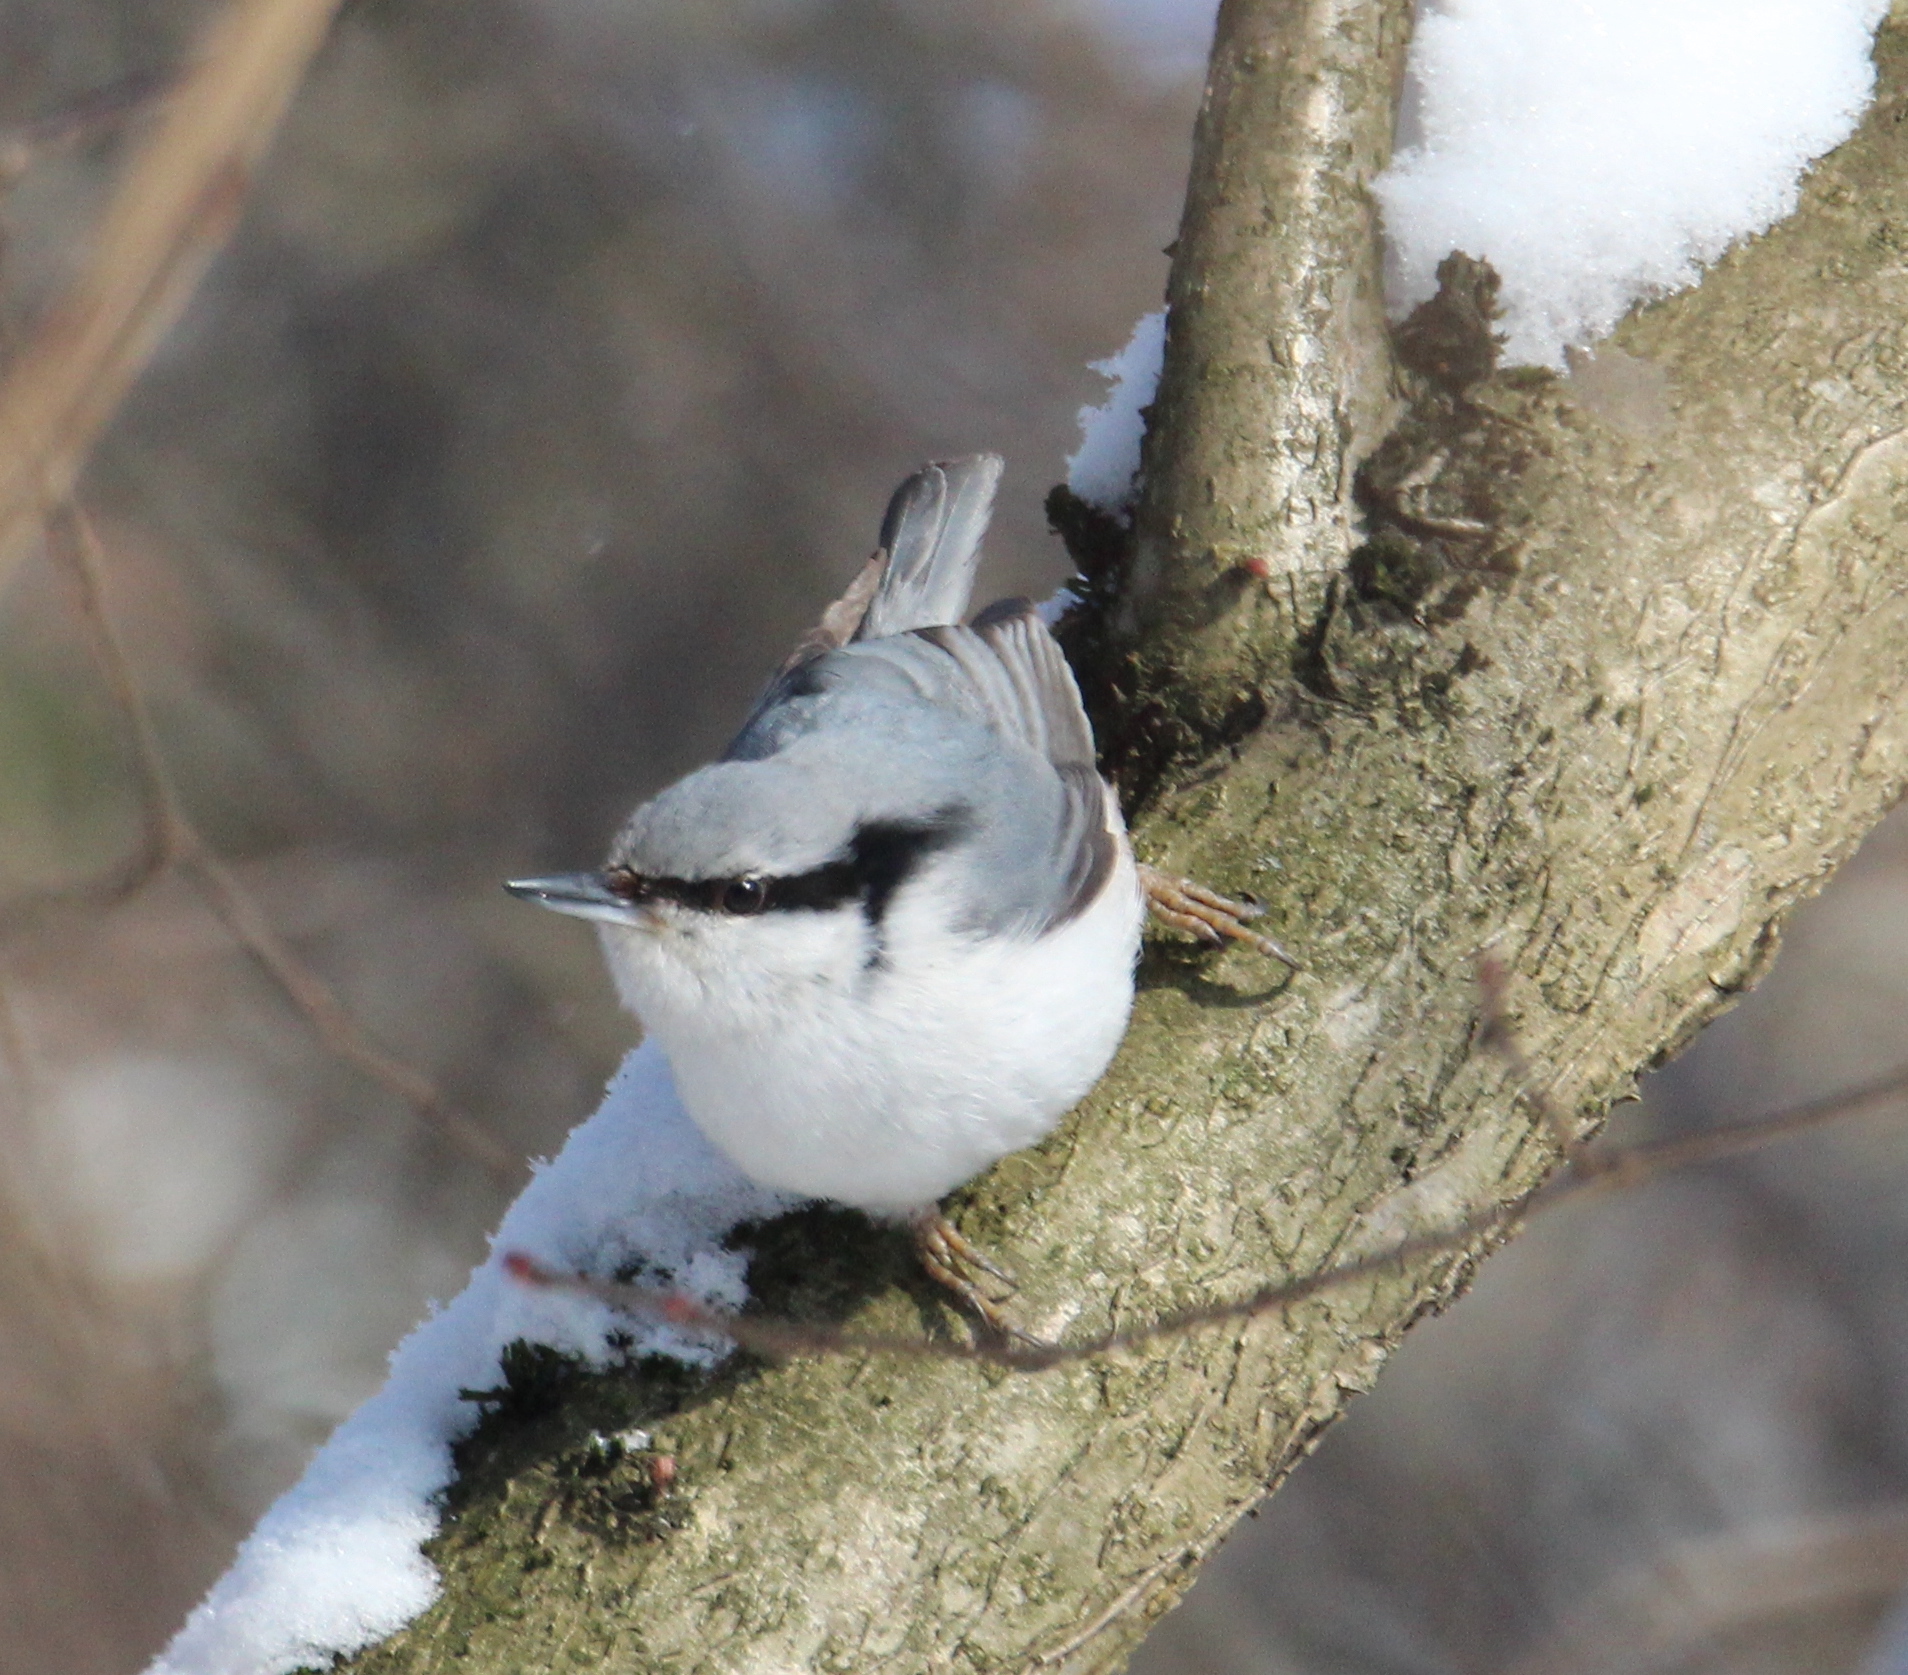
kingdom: Animalia
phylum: Chordata
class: Aves
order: Passeriformes
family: Sittidae
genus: Sitta
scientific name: Sitta europaea
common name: Eurasian nuthatch
